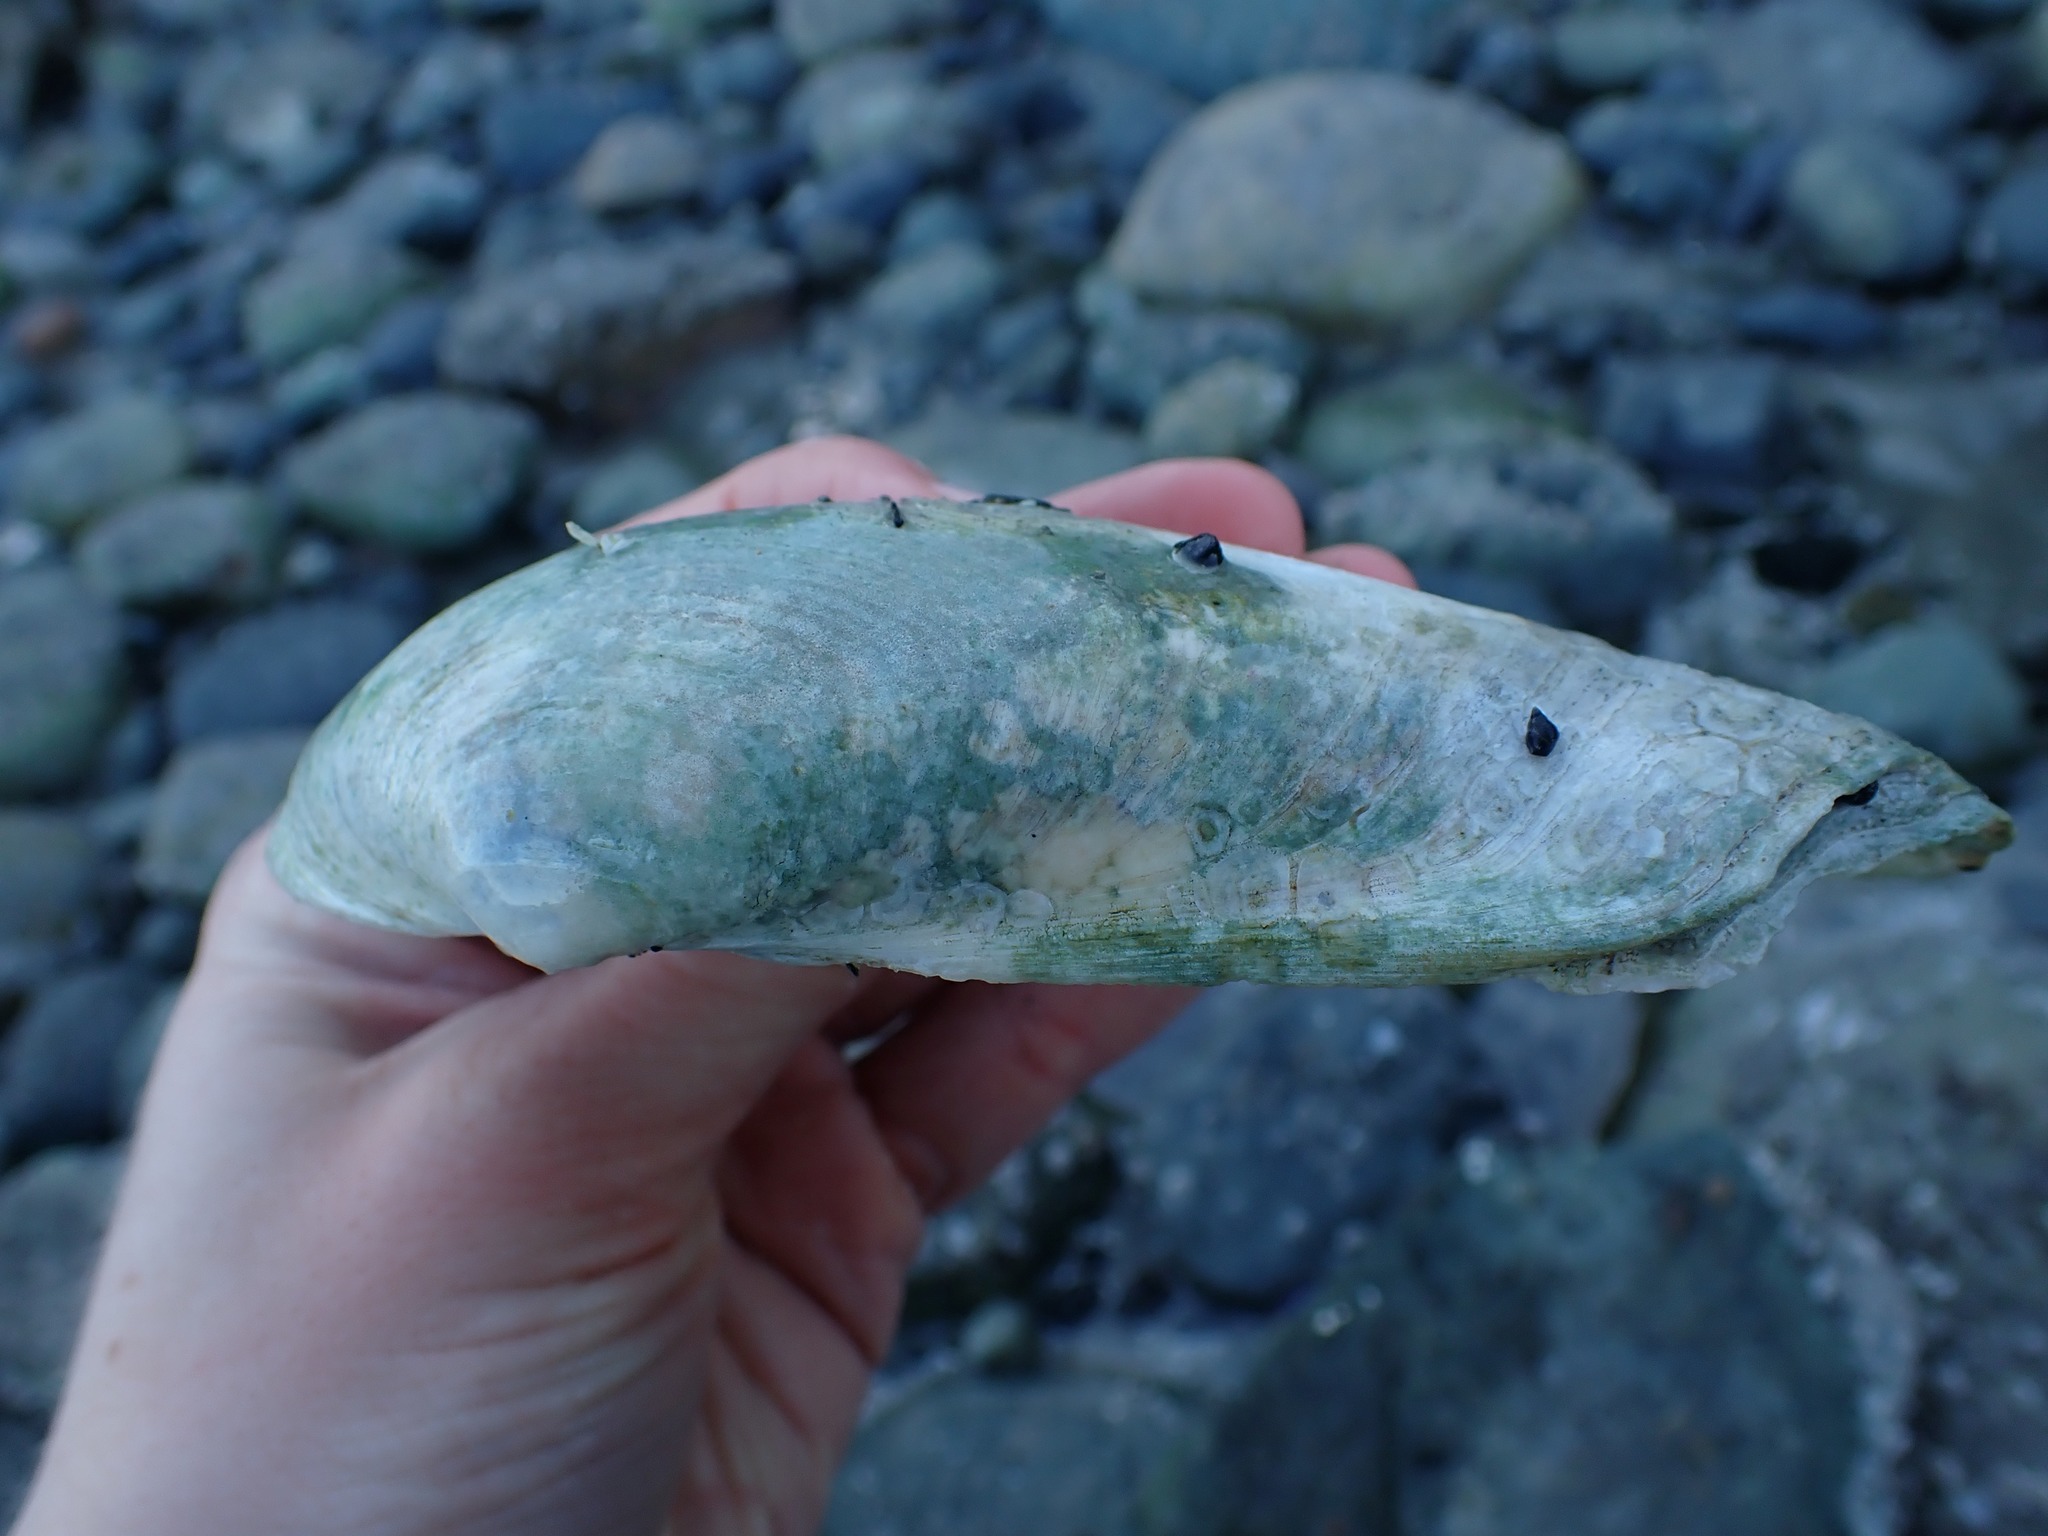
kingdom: Animalia
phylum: Mollusca
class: Bivalvia
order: Venerida
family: Mactridae
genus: Tresus
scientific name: Tresus nuttallii
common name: Pacific gaper clam
